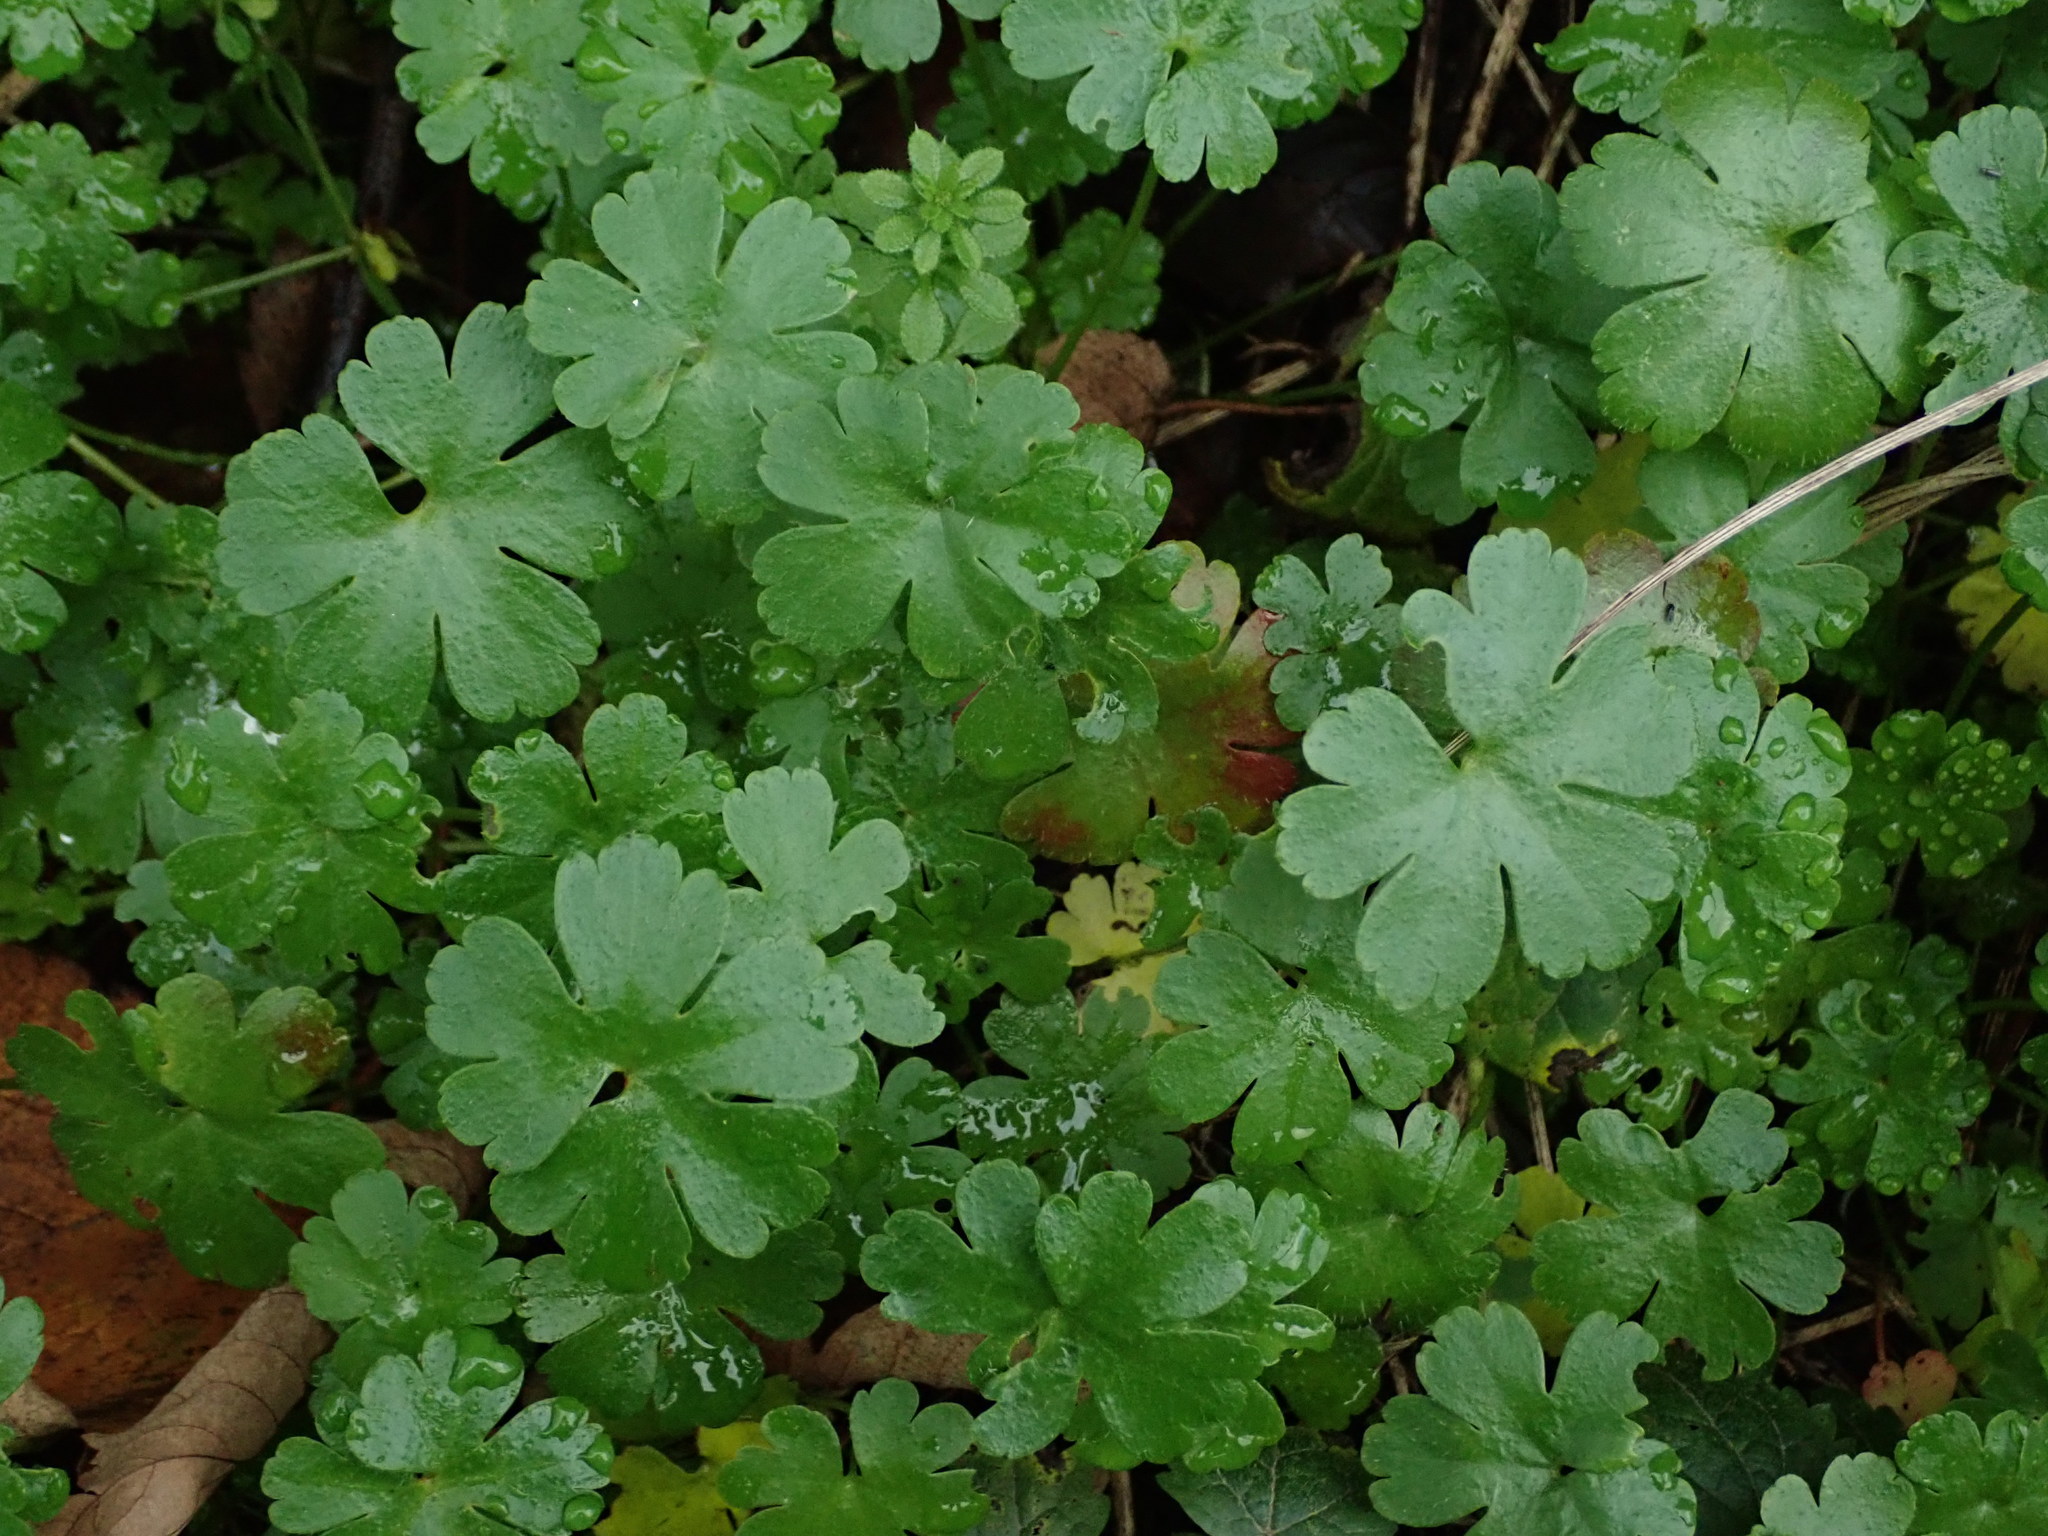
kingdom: Plantae
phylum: Tracheophyta
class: Magnoliopsida
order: Geraniales
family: Geraniaceae
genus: Geranium
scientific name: Geranium lucidum
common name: Shining crane's-bill
